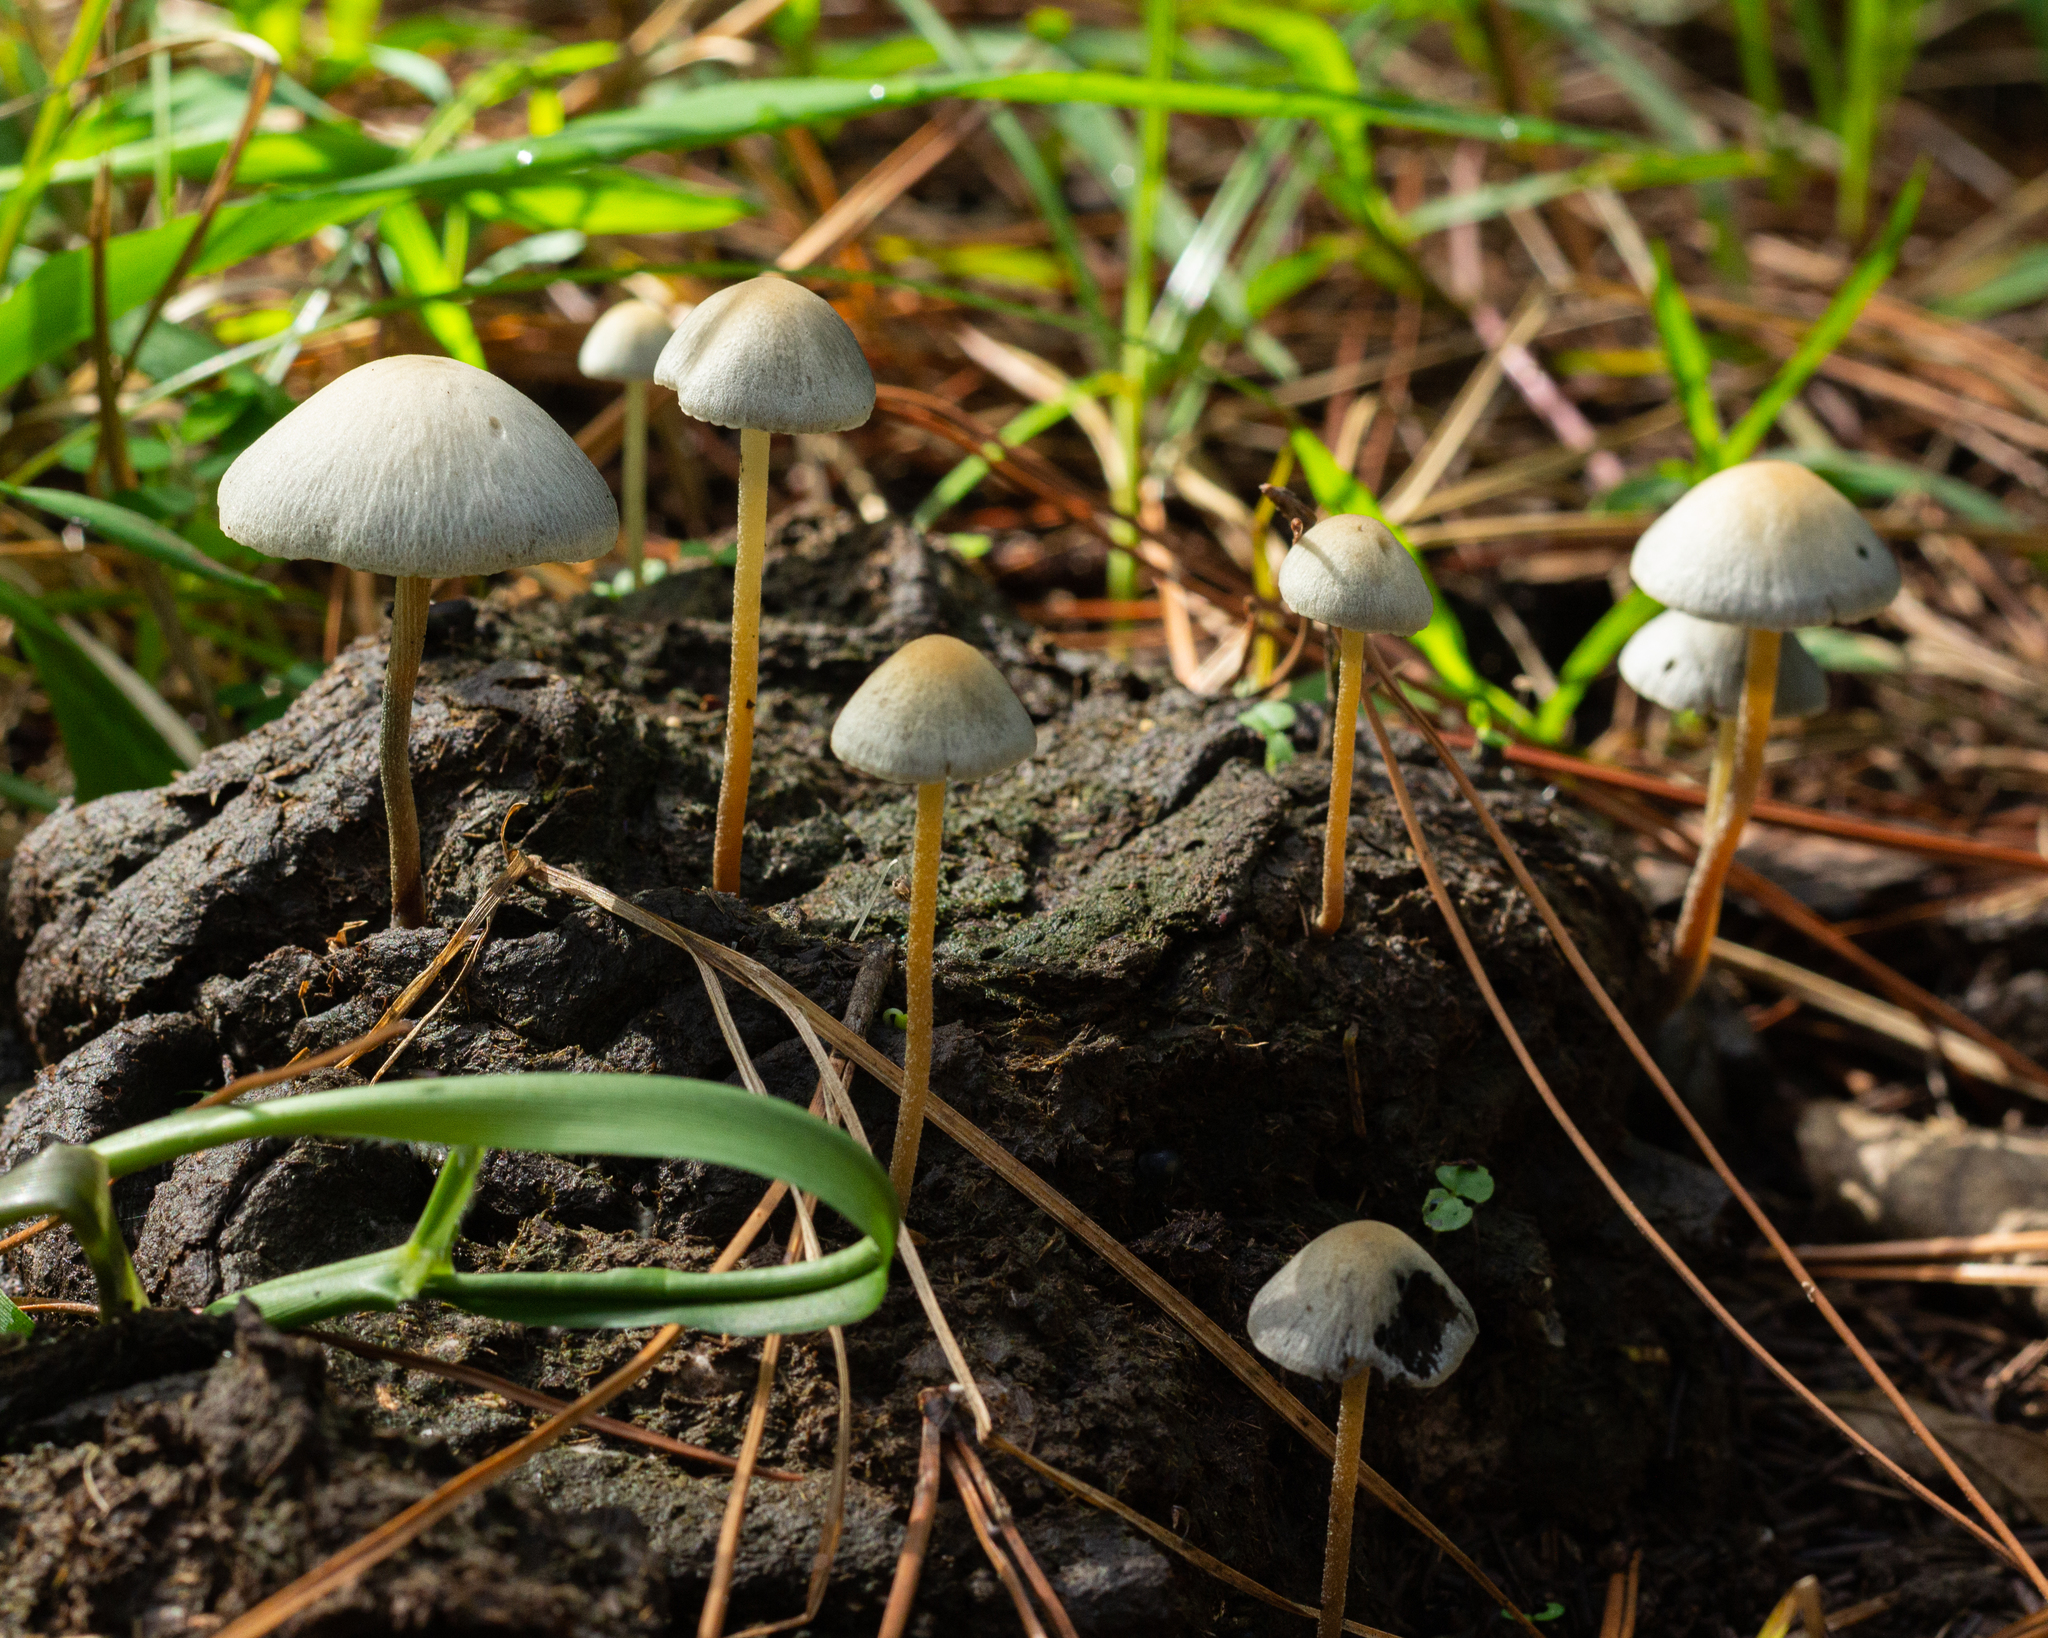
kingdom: Fungi
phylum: Basidiomycota
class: Agaricomycetes
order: Agaricales
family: Bolbitiaceae
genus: Panaeolus
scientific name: Panaeolus cyanescens
